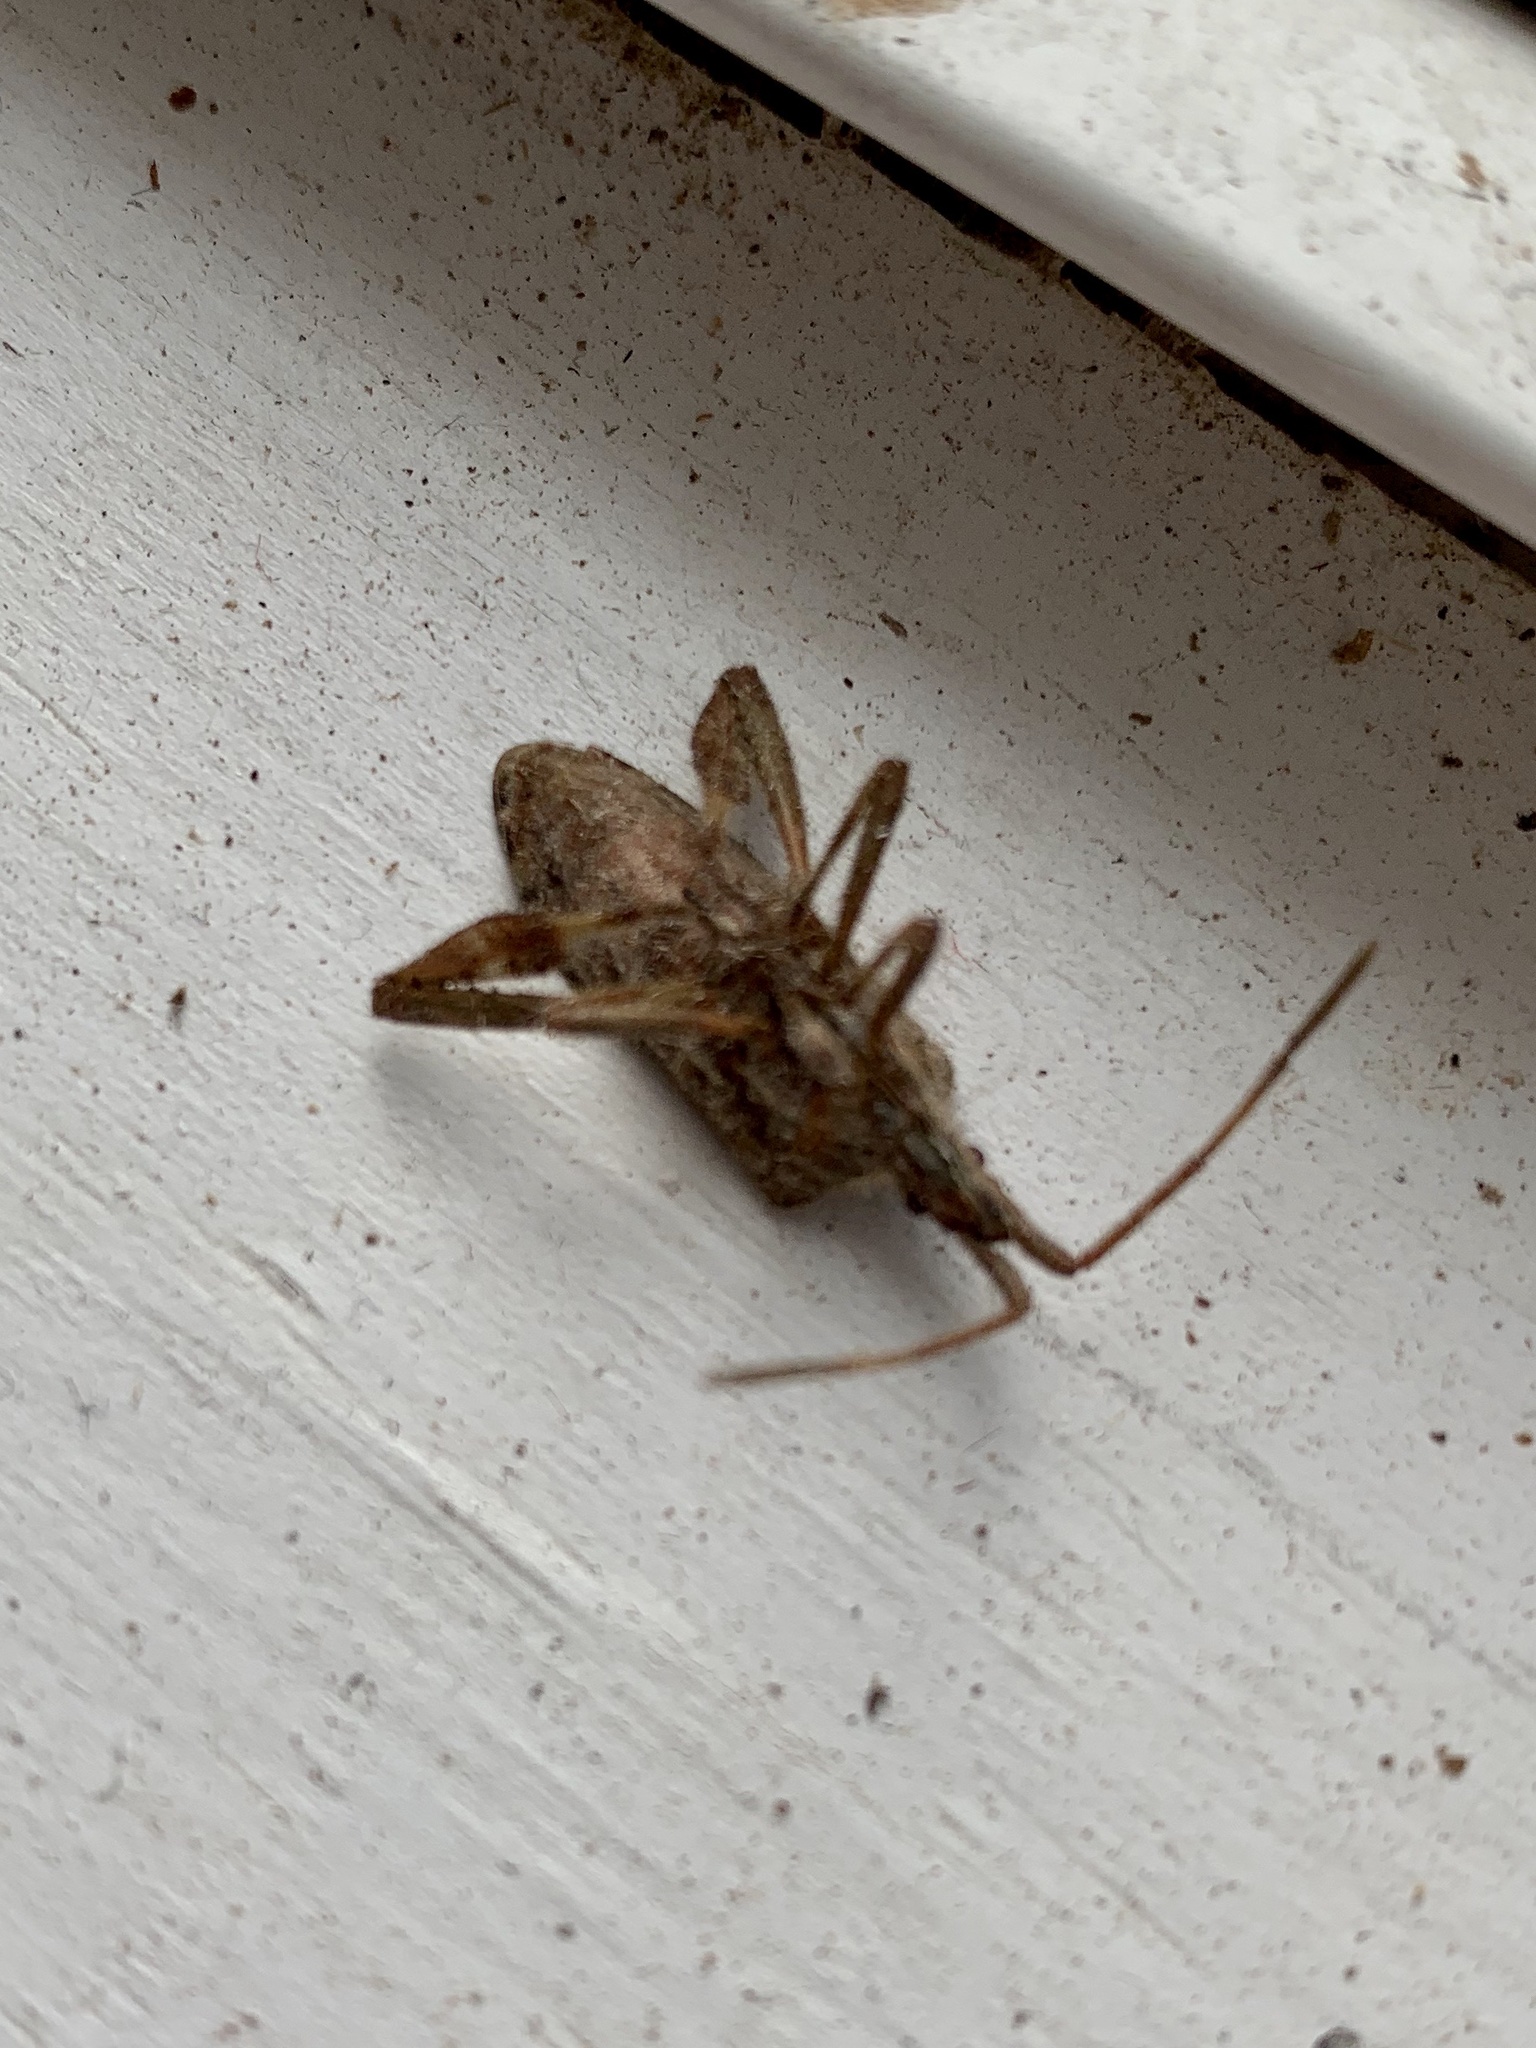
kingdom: Animalia
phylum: Arthropoda
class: Insecta
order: Hemiptera
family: Coreidae
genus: Leptoglossus
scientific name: Leptoglossus occidentalis
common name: Western conifer-seed bug
